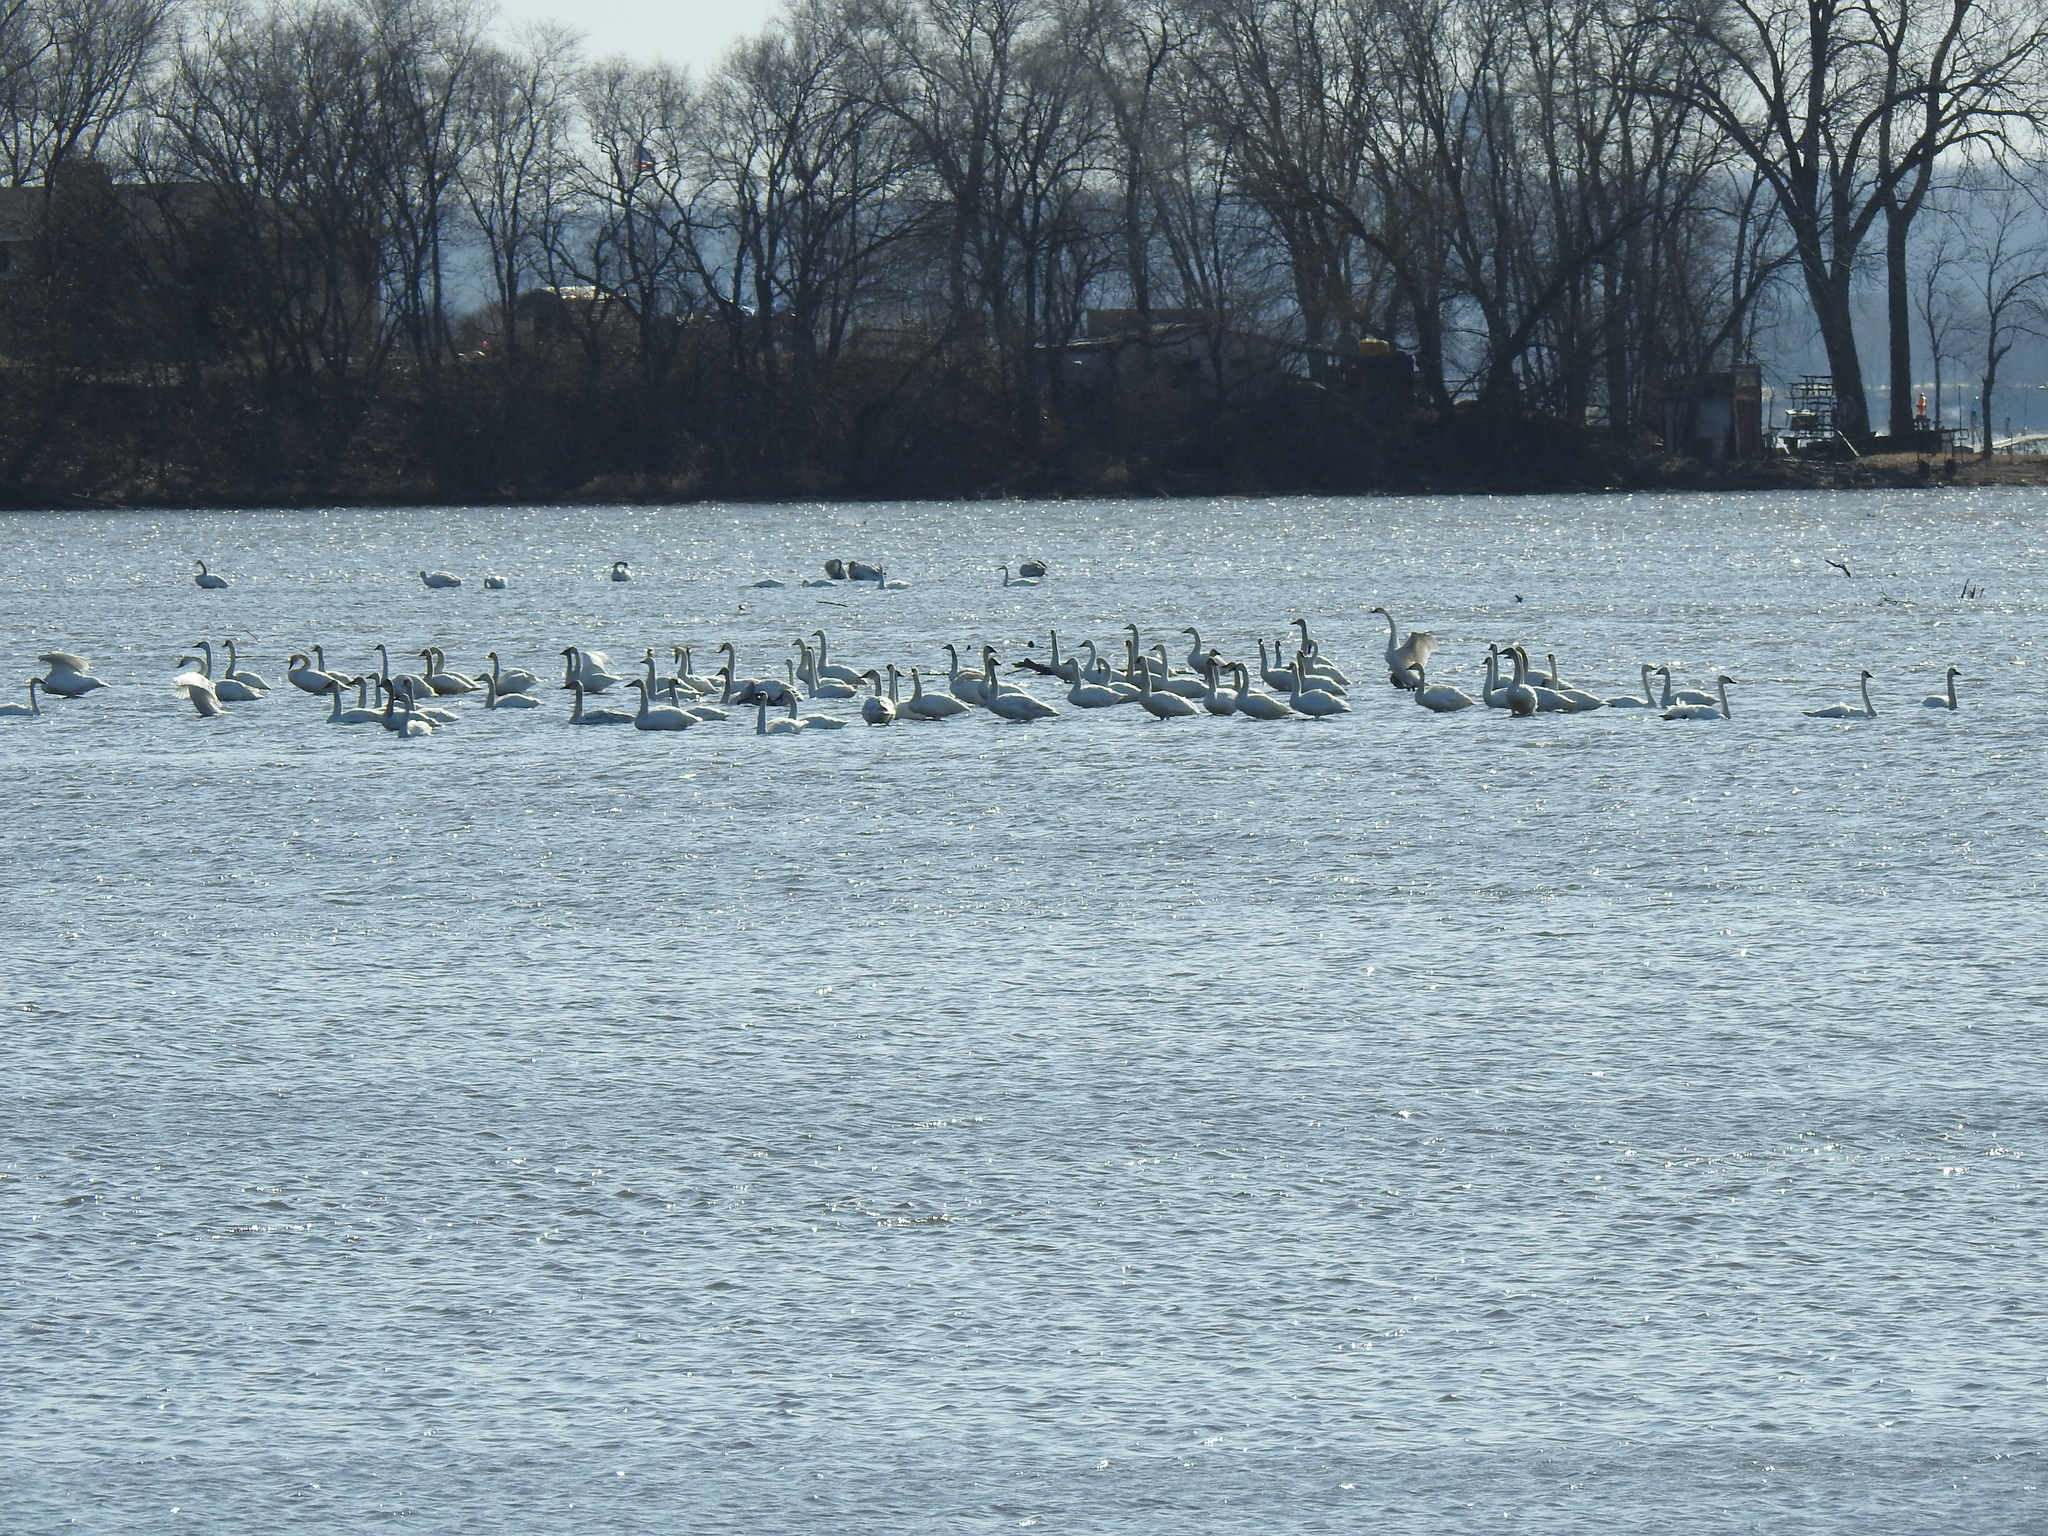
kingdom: Animalia
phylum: Chordata
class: Aves
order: Anseriformes
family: Anatidae
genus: Cygnus
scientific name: Cygnus buccinator
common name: Trumpeter swan
